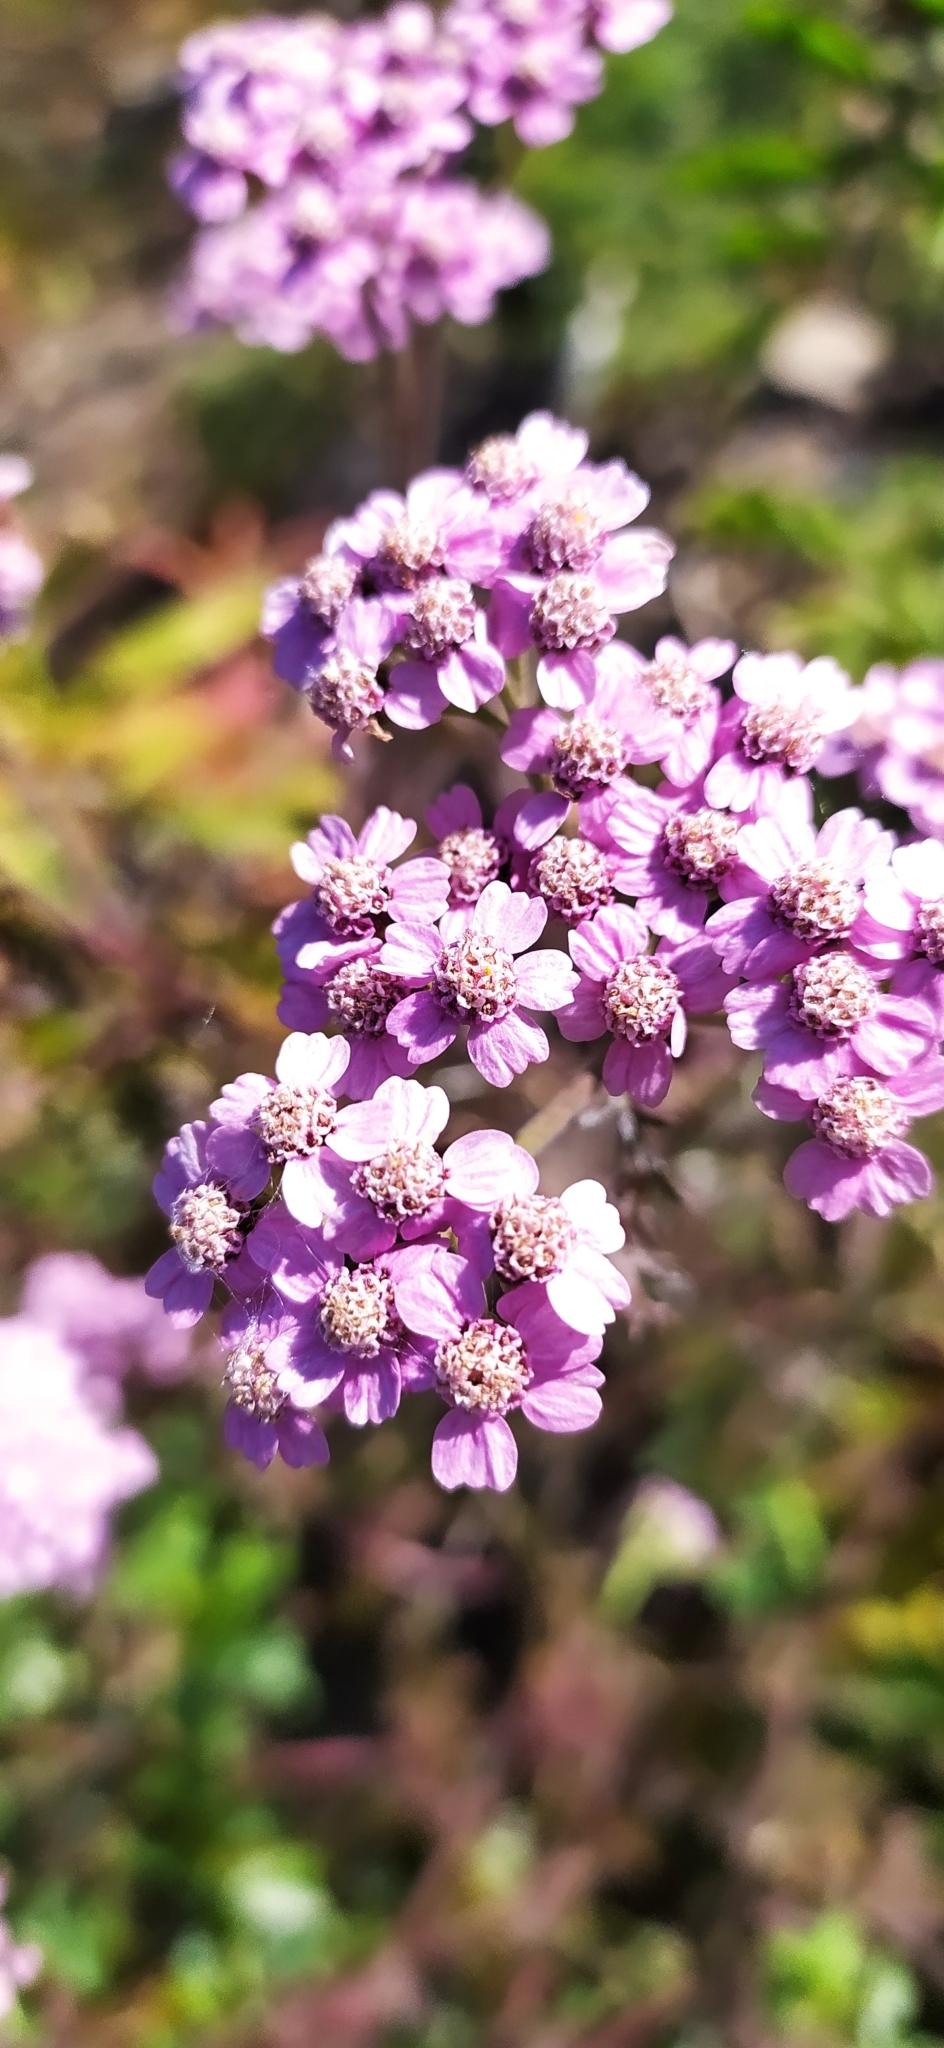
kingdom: Plantae
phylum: Tracheophyta
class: Magnoliopsida
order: Asterales
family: Asteraceae
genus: Achillea
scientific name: Achillea millefolium
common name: Yarrow
